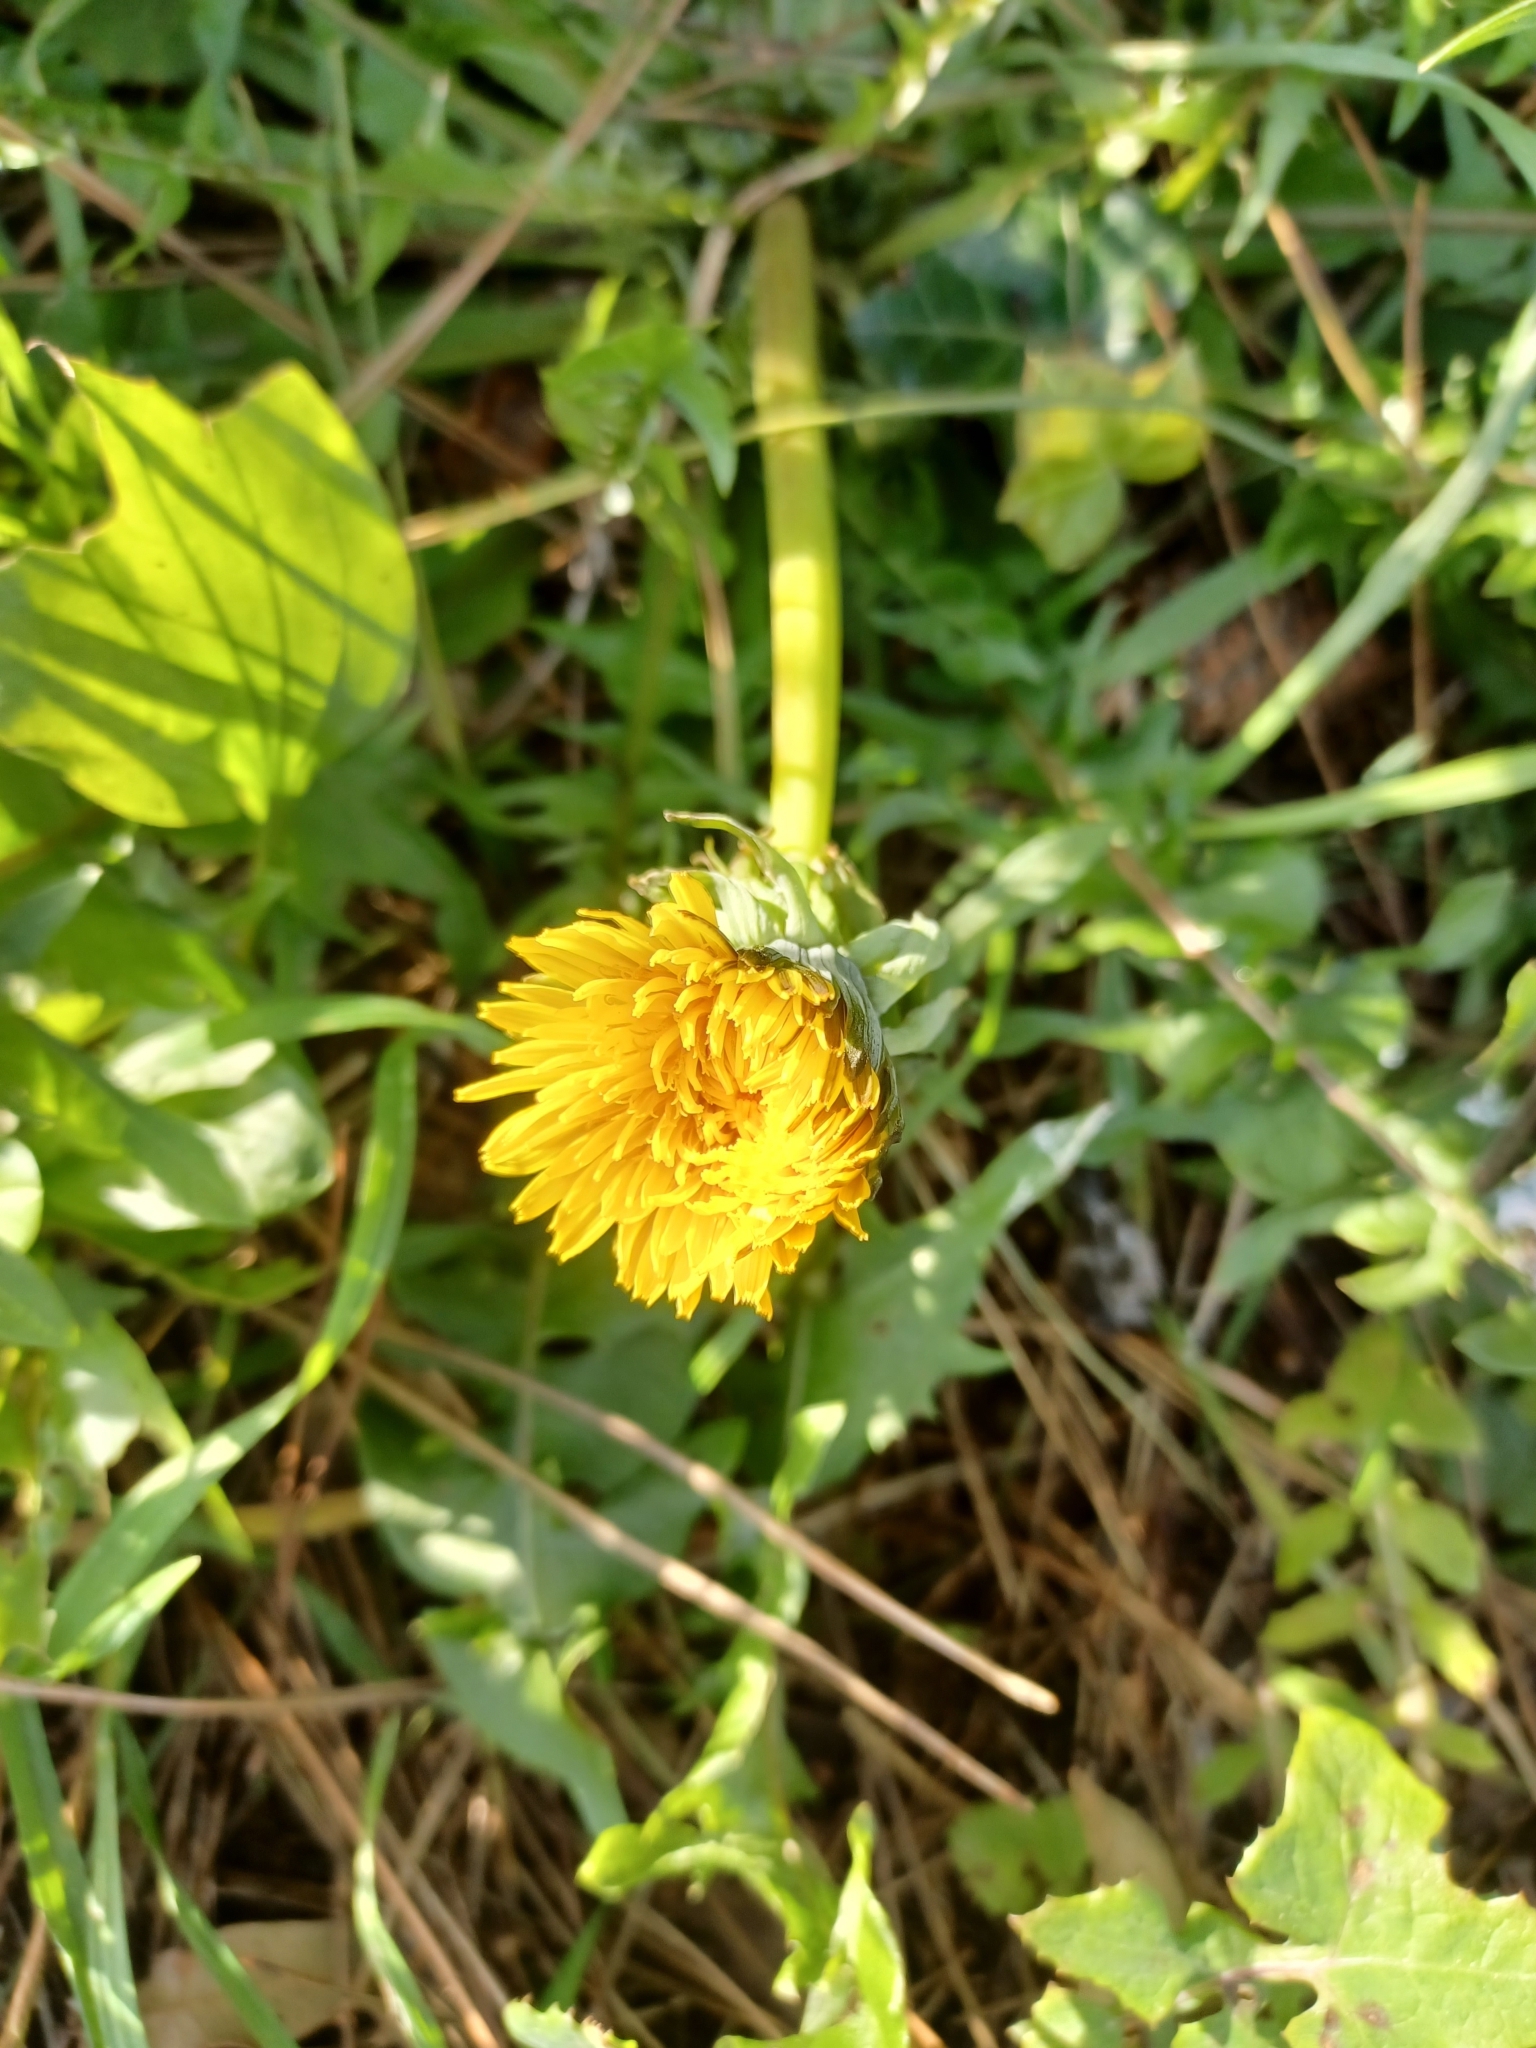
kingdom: Plantae
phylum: Tracheophyta
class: Magnoliopsida
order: Asterales
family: Asteraceae
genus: Taraxacum
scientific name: Taraxacum officinale
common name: Common dandelion
